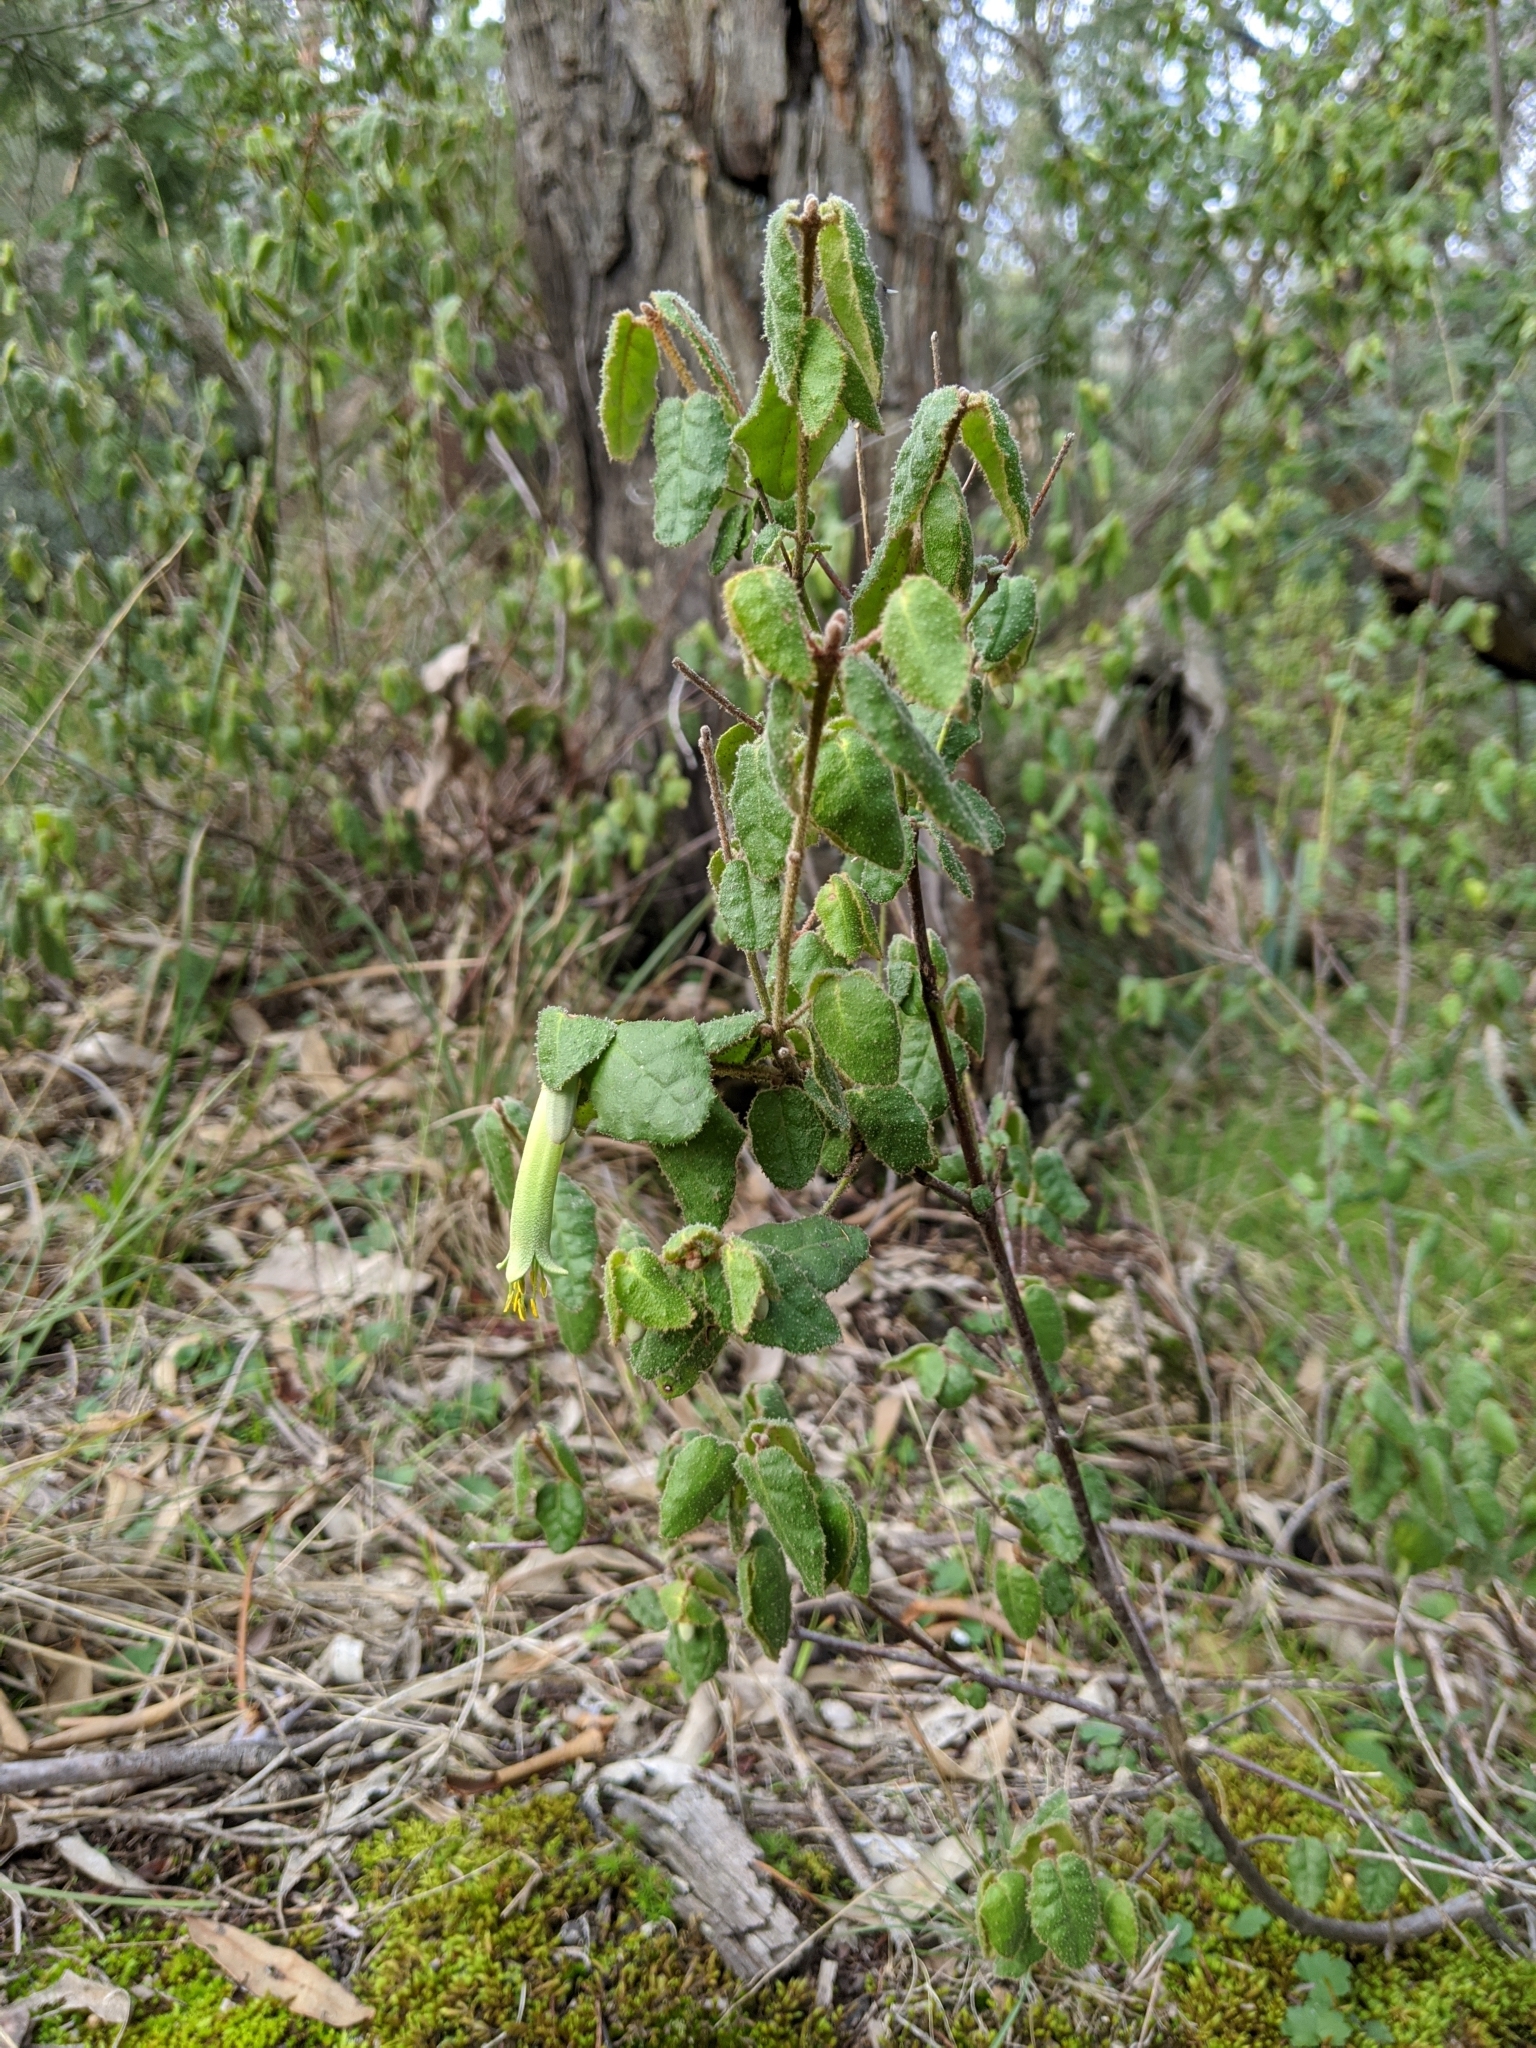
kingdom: Plantae
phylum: Tracheophyta
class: Magnoliopsida
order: Sapindales
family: Rutaceae
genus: Correa
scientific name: Correa reflexa
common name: Common correa
